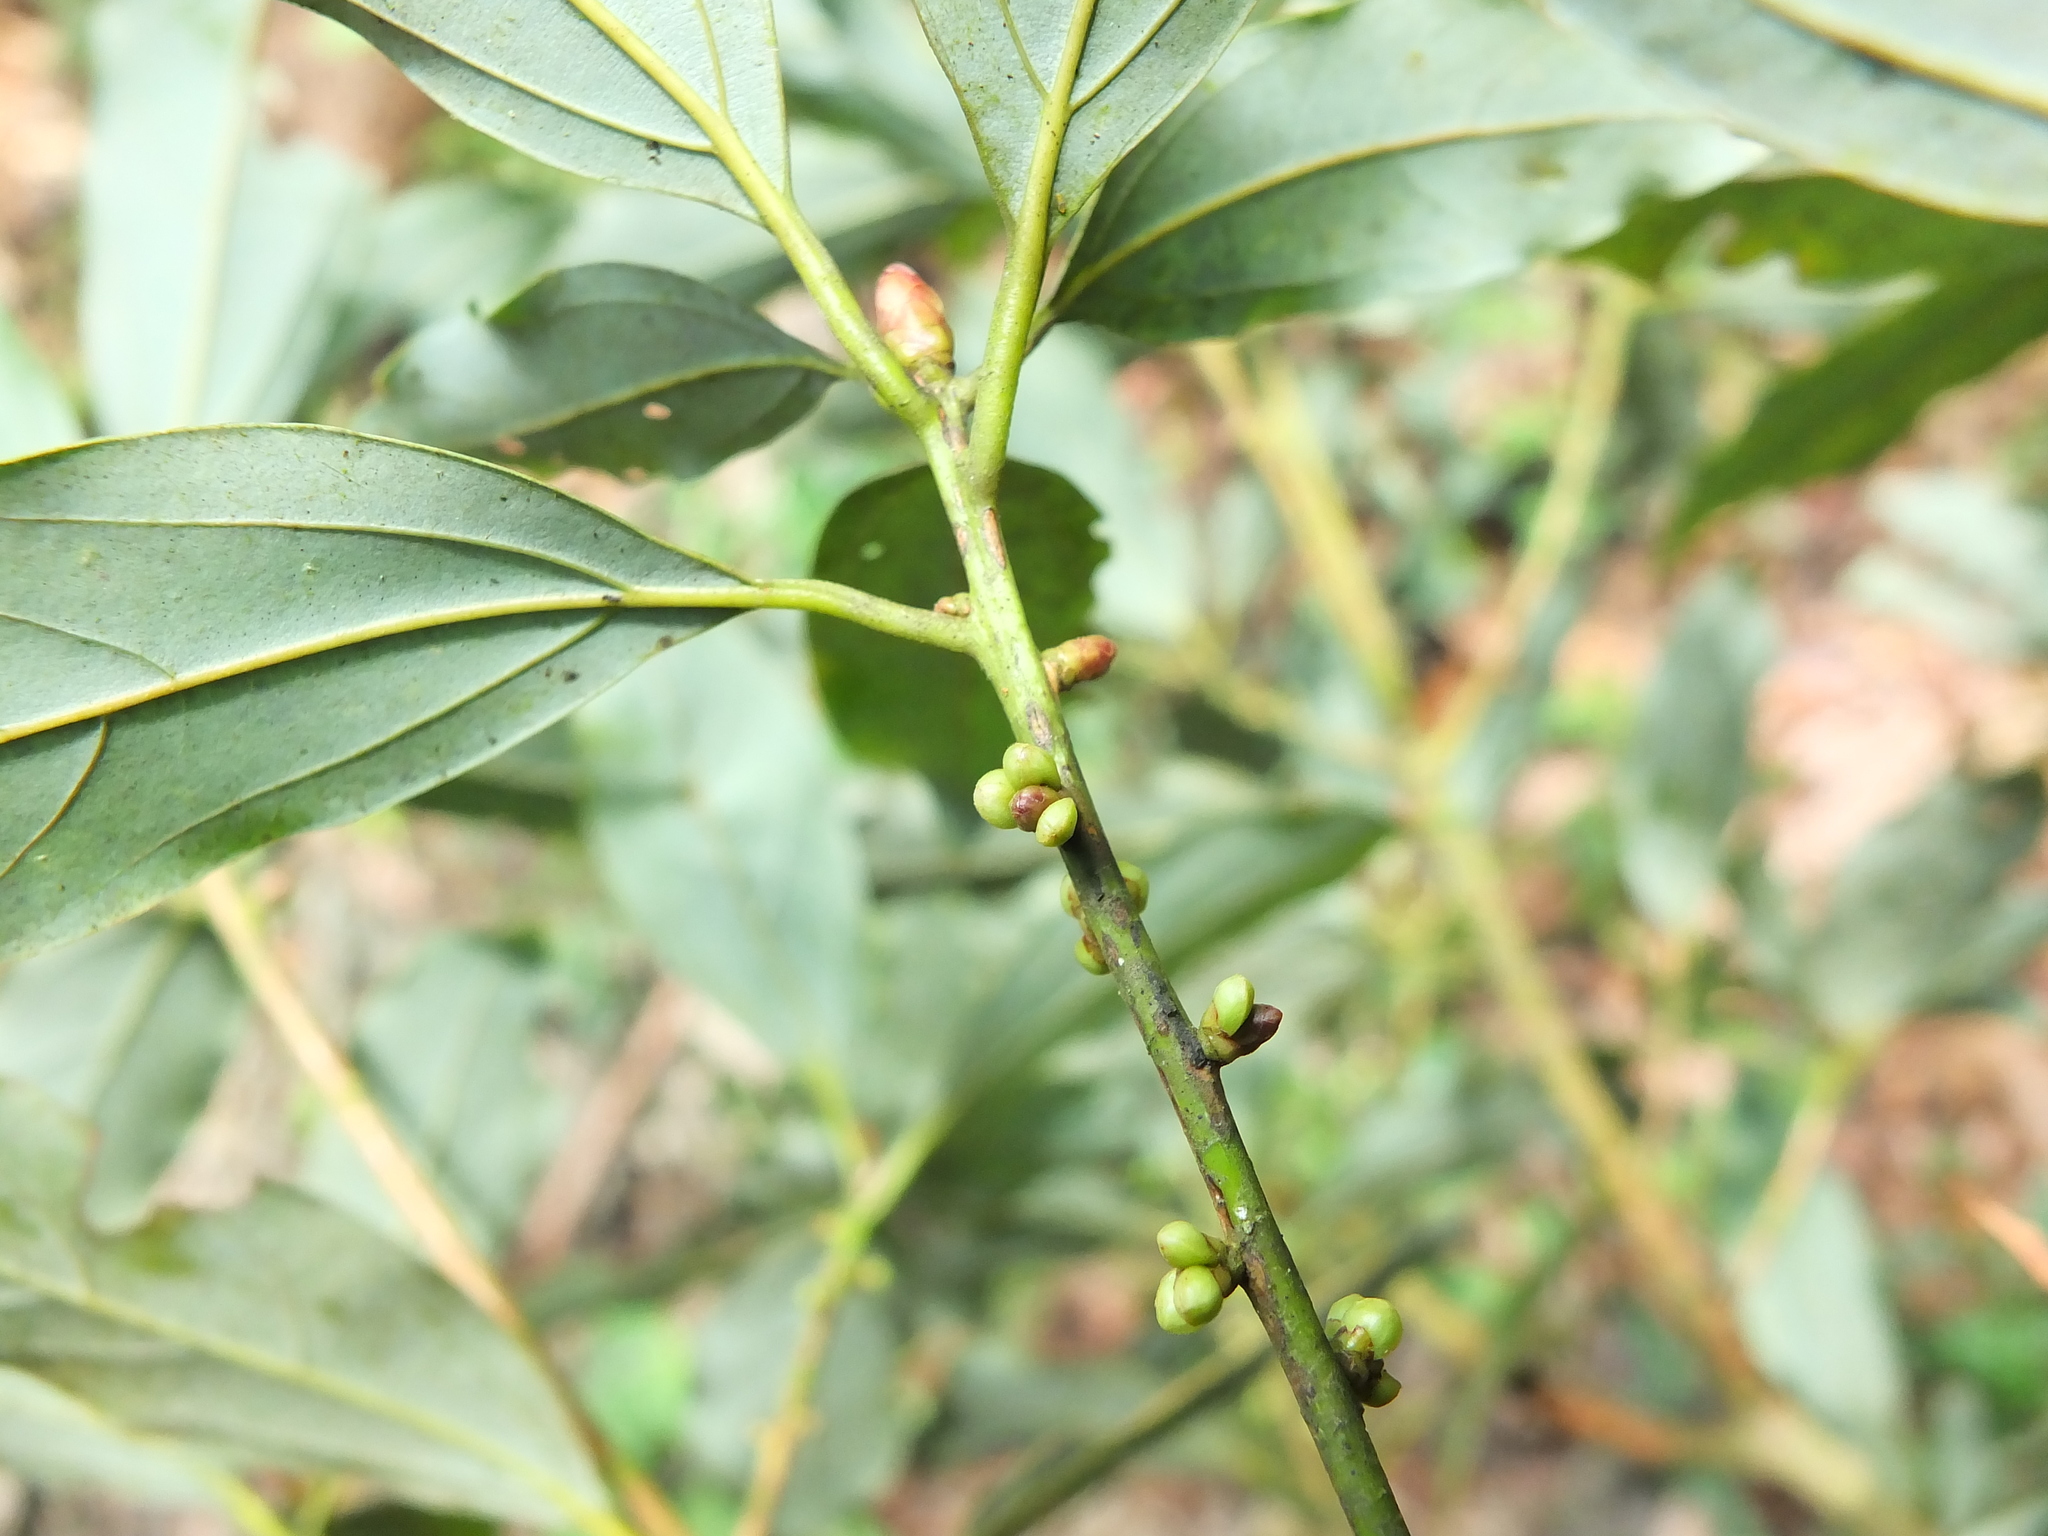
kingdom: Plantae
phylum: Tracheophyta
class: Magnoliopsida
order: Laurales
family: Lauraceae
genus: Neolitsea
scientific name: Neolitsea foliosa
